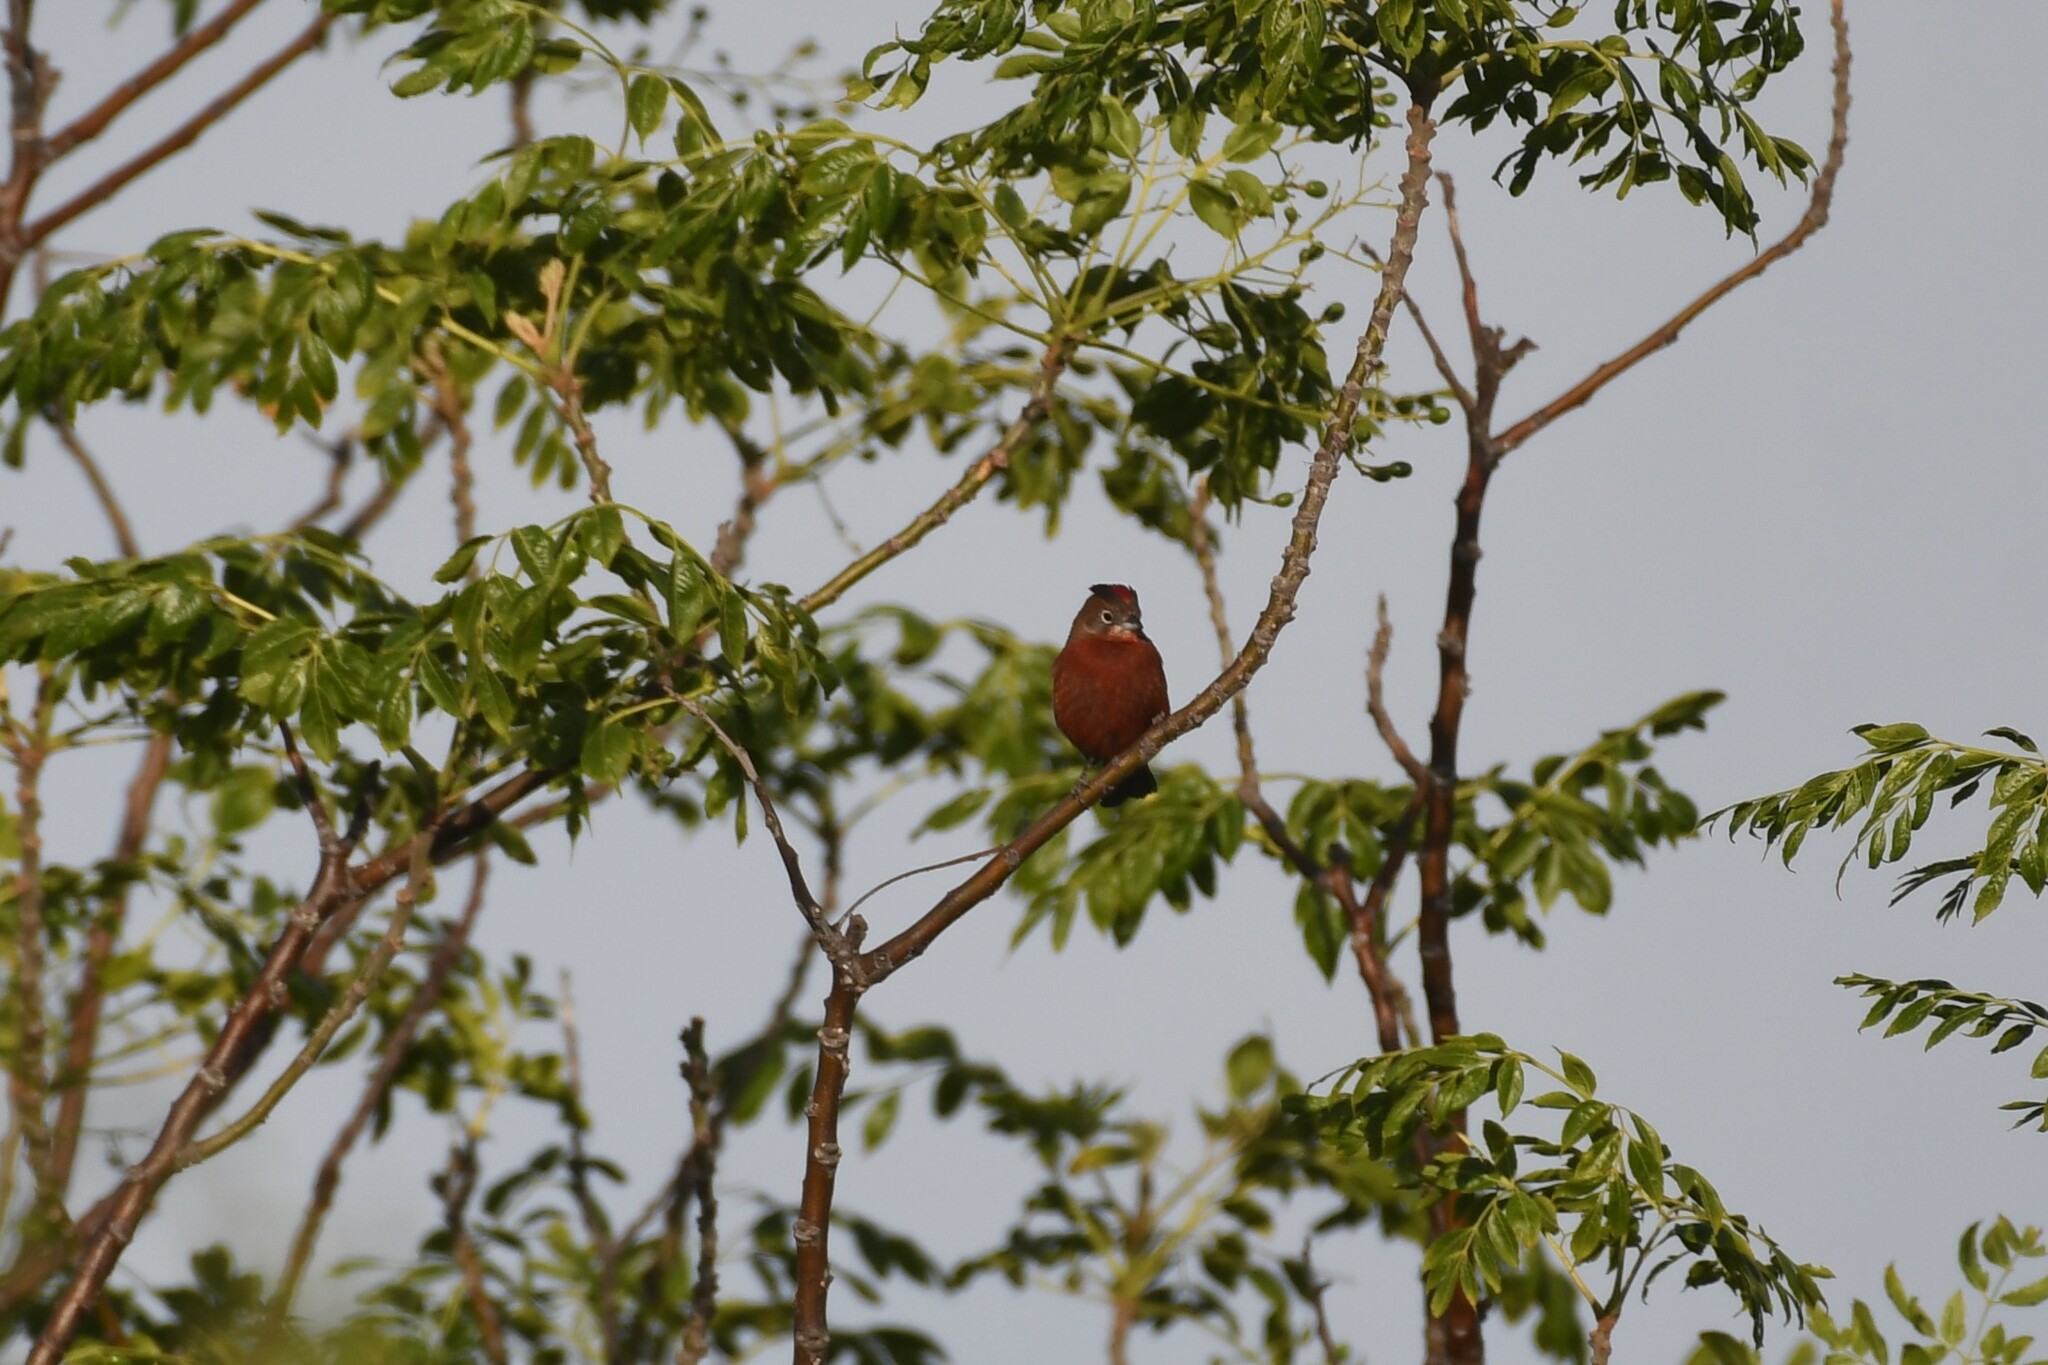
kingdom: Animalia
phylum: Chordata
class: Aves
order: Passeriformes
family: Thraupidae
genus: Coryphospingus
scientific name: Coryphospingus cucullatus
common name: Red pileated finch
